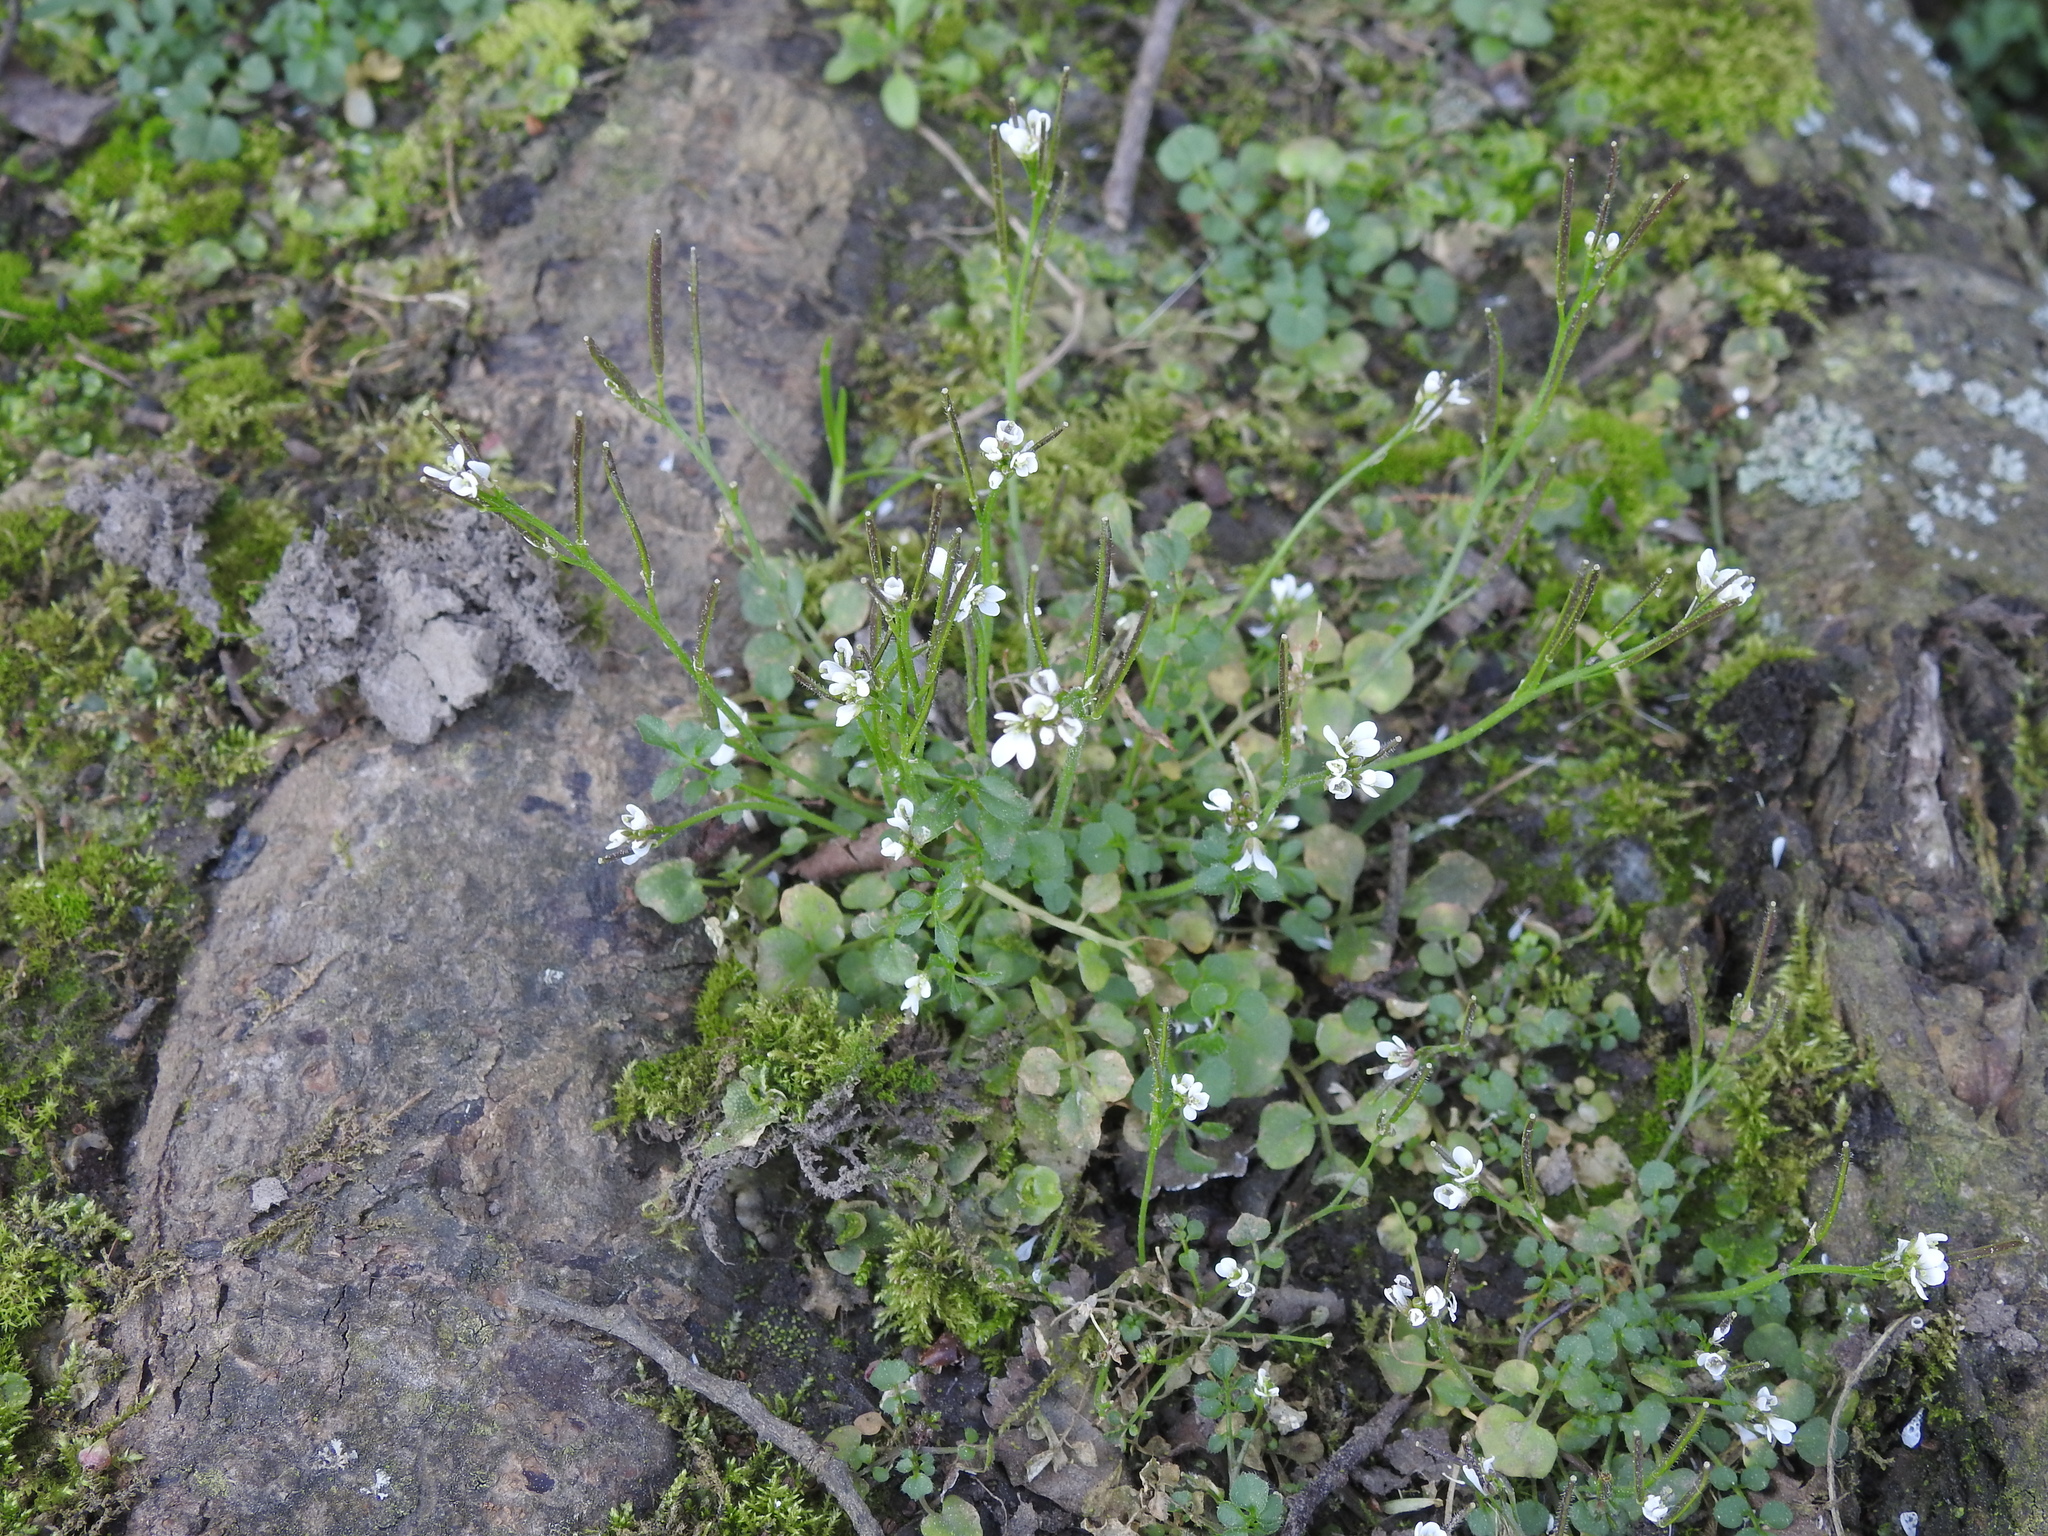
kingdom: Plantae
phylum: Tracheophyta
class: Magnoliopsida
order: Brassicales
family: Brassicaceae
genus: Cardamine
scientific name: Cardamine hirsuta
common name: Hairy bittercress
